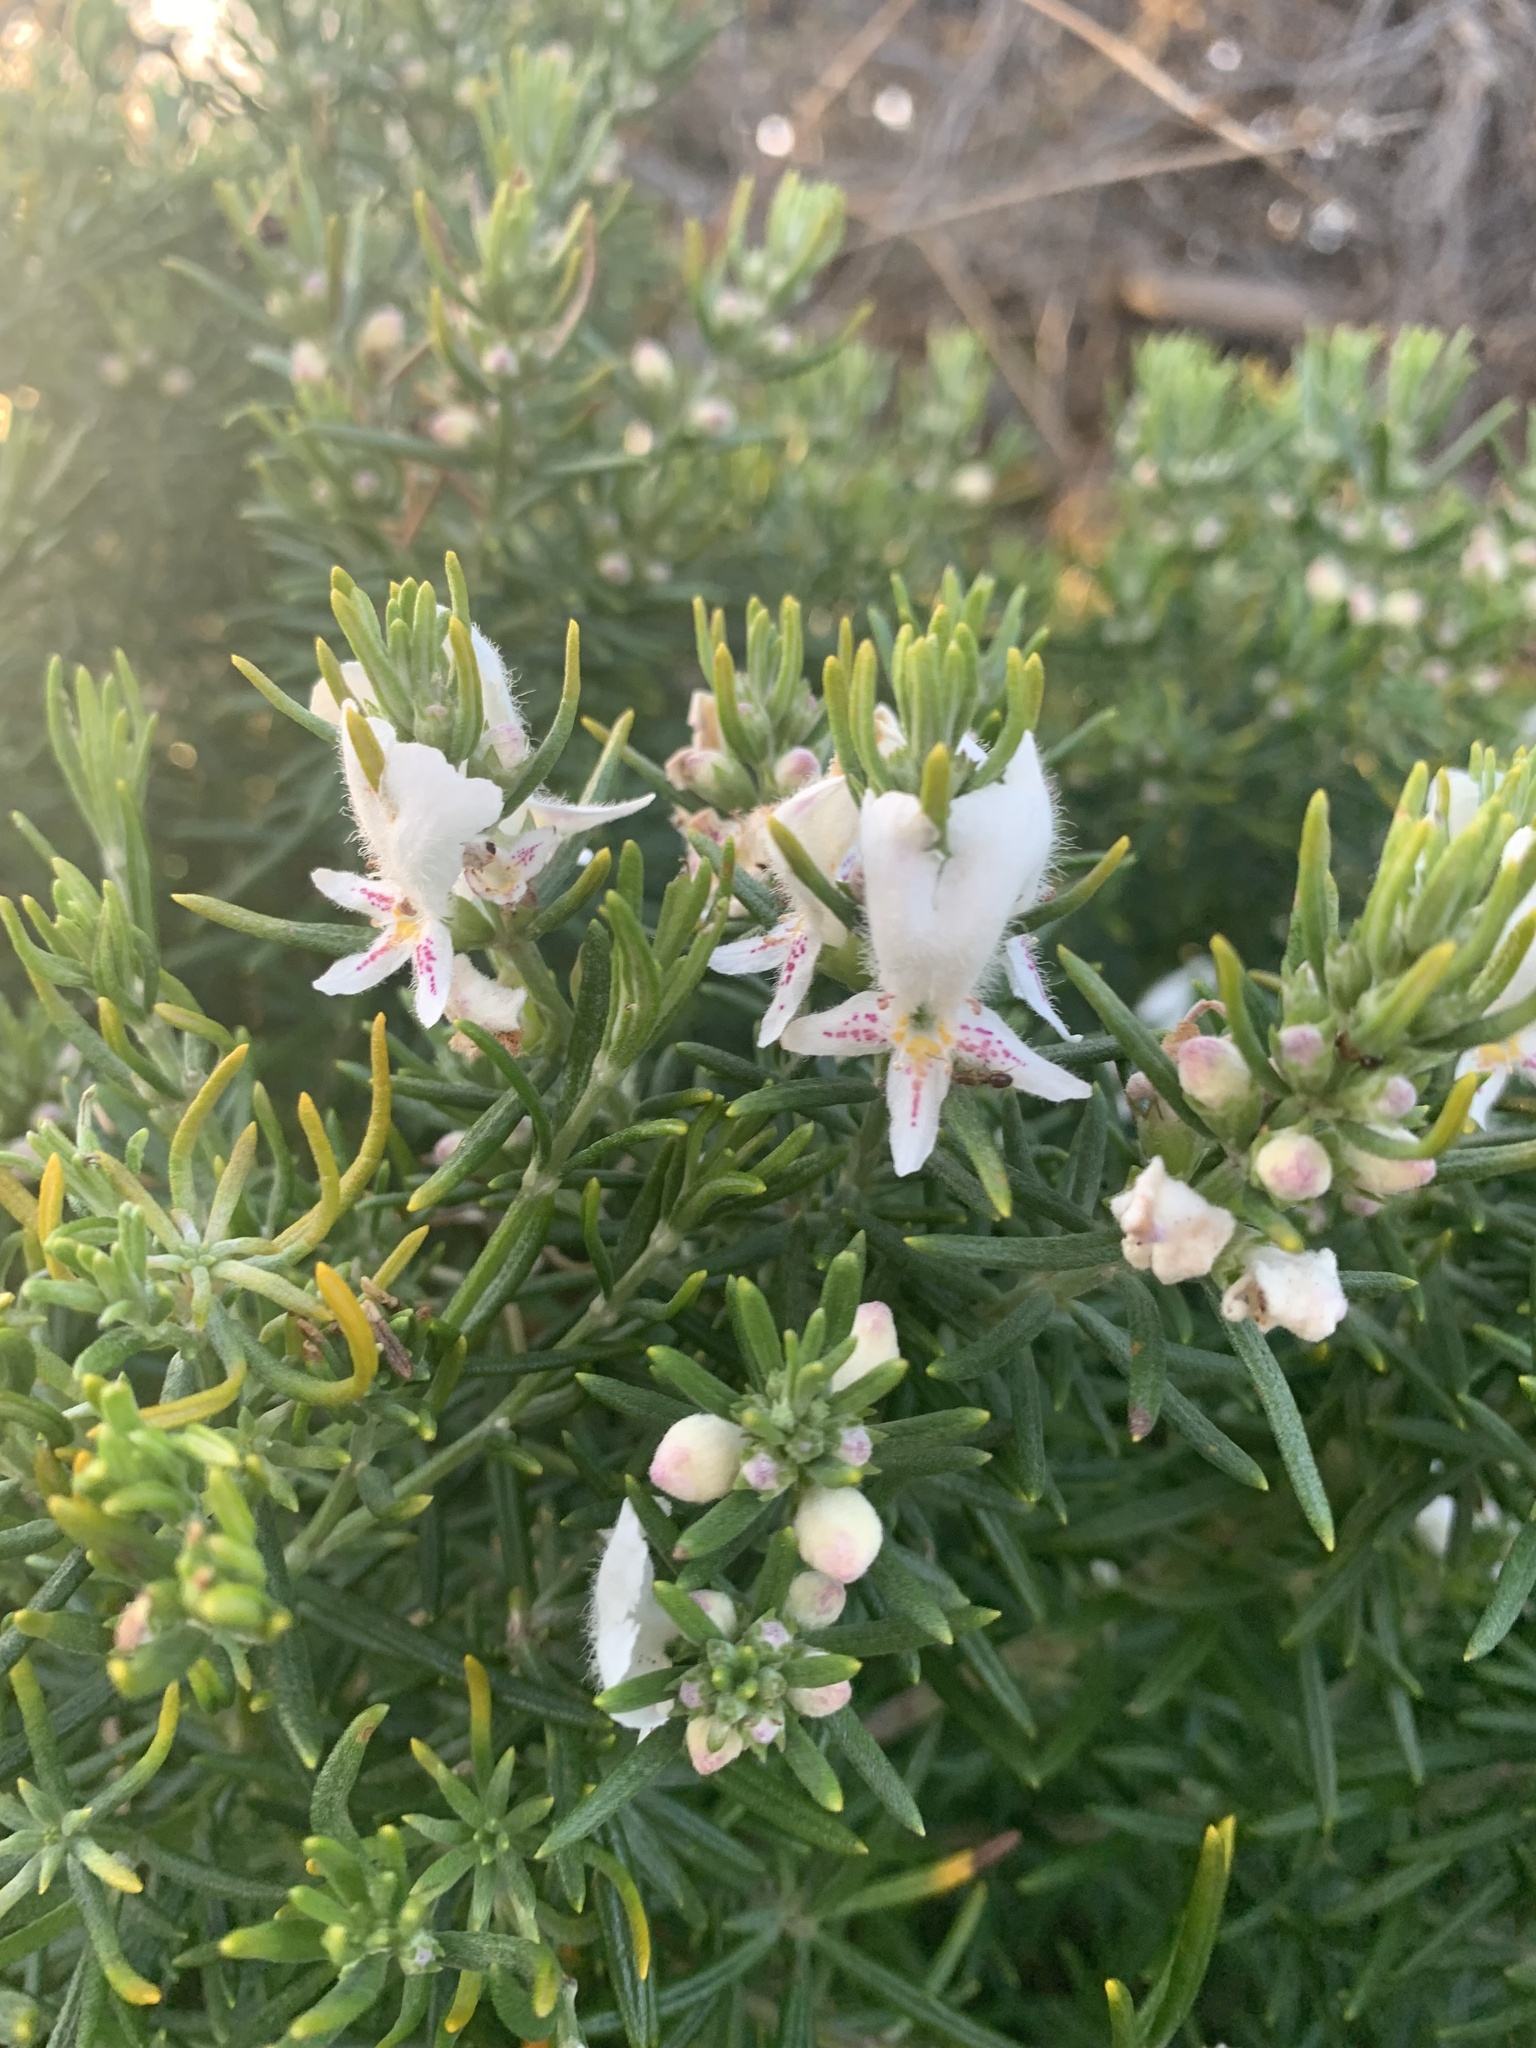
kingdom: Plantae
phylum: Tracheophyta
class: Magnoliopsida
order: Lamiales
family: Lamiaceae
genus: Westringia
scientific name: Westringia dampieri
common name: Shore westringia
